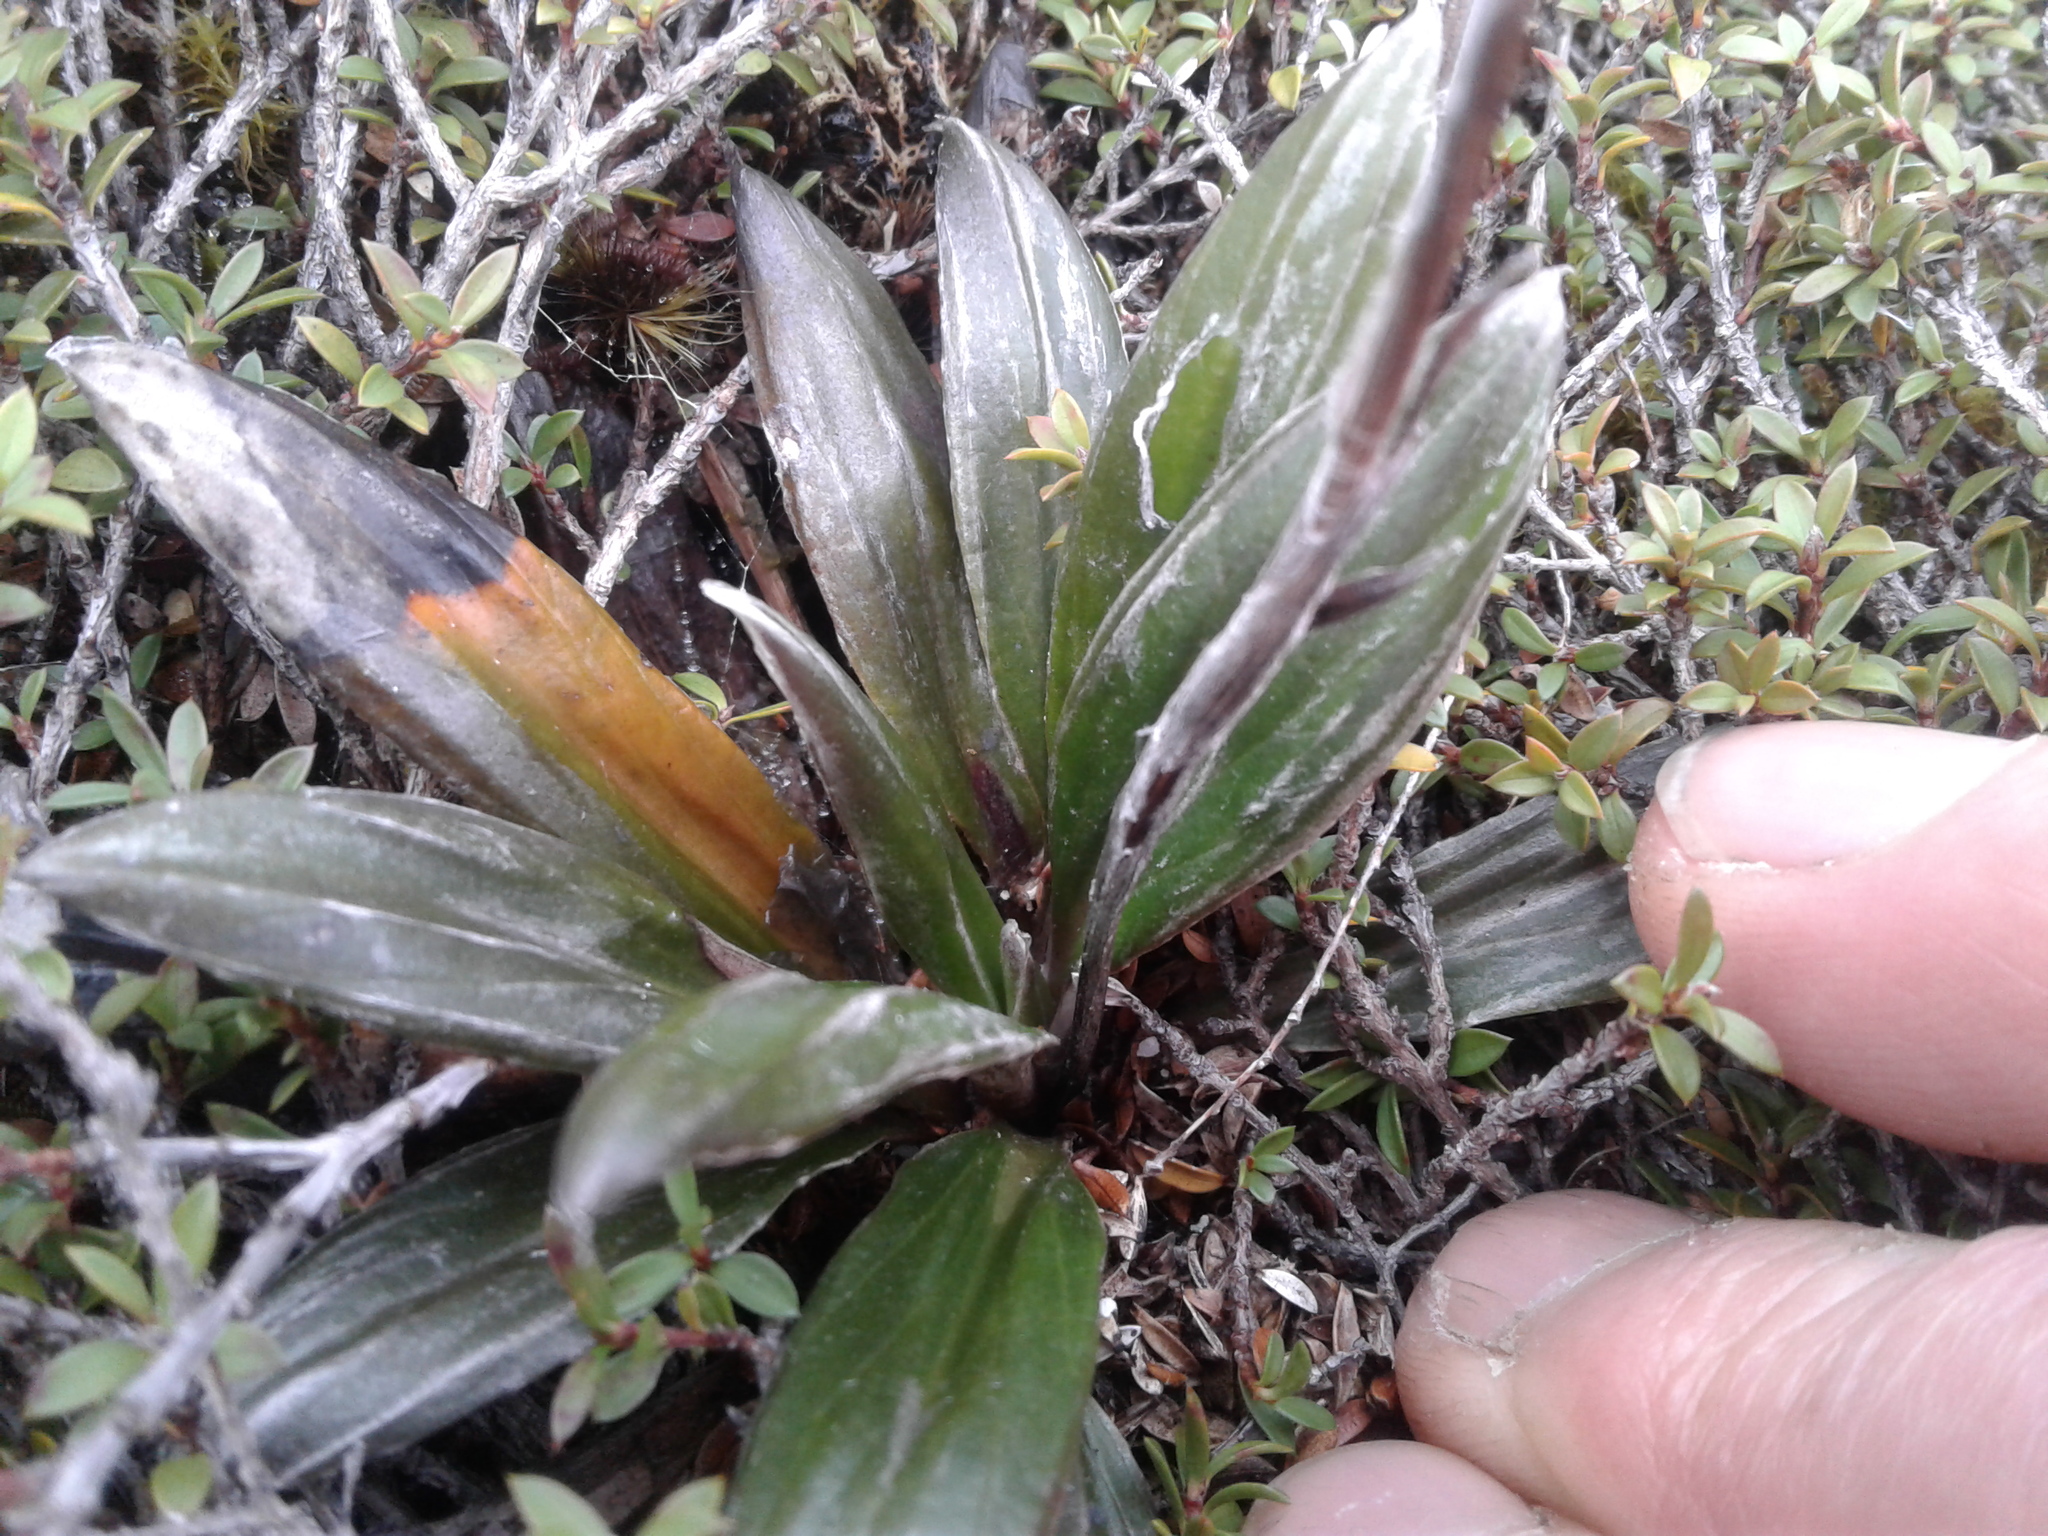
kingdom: Plantae
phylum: Tracheophyta
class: Magnoliopsida
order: Asterales
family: Asteraceae
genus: Celmisia
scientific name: Celmisia dubia
